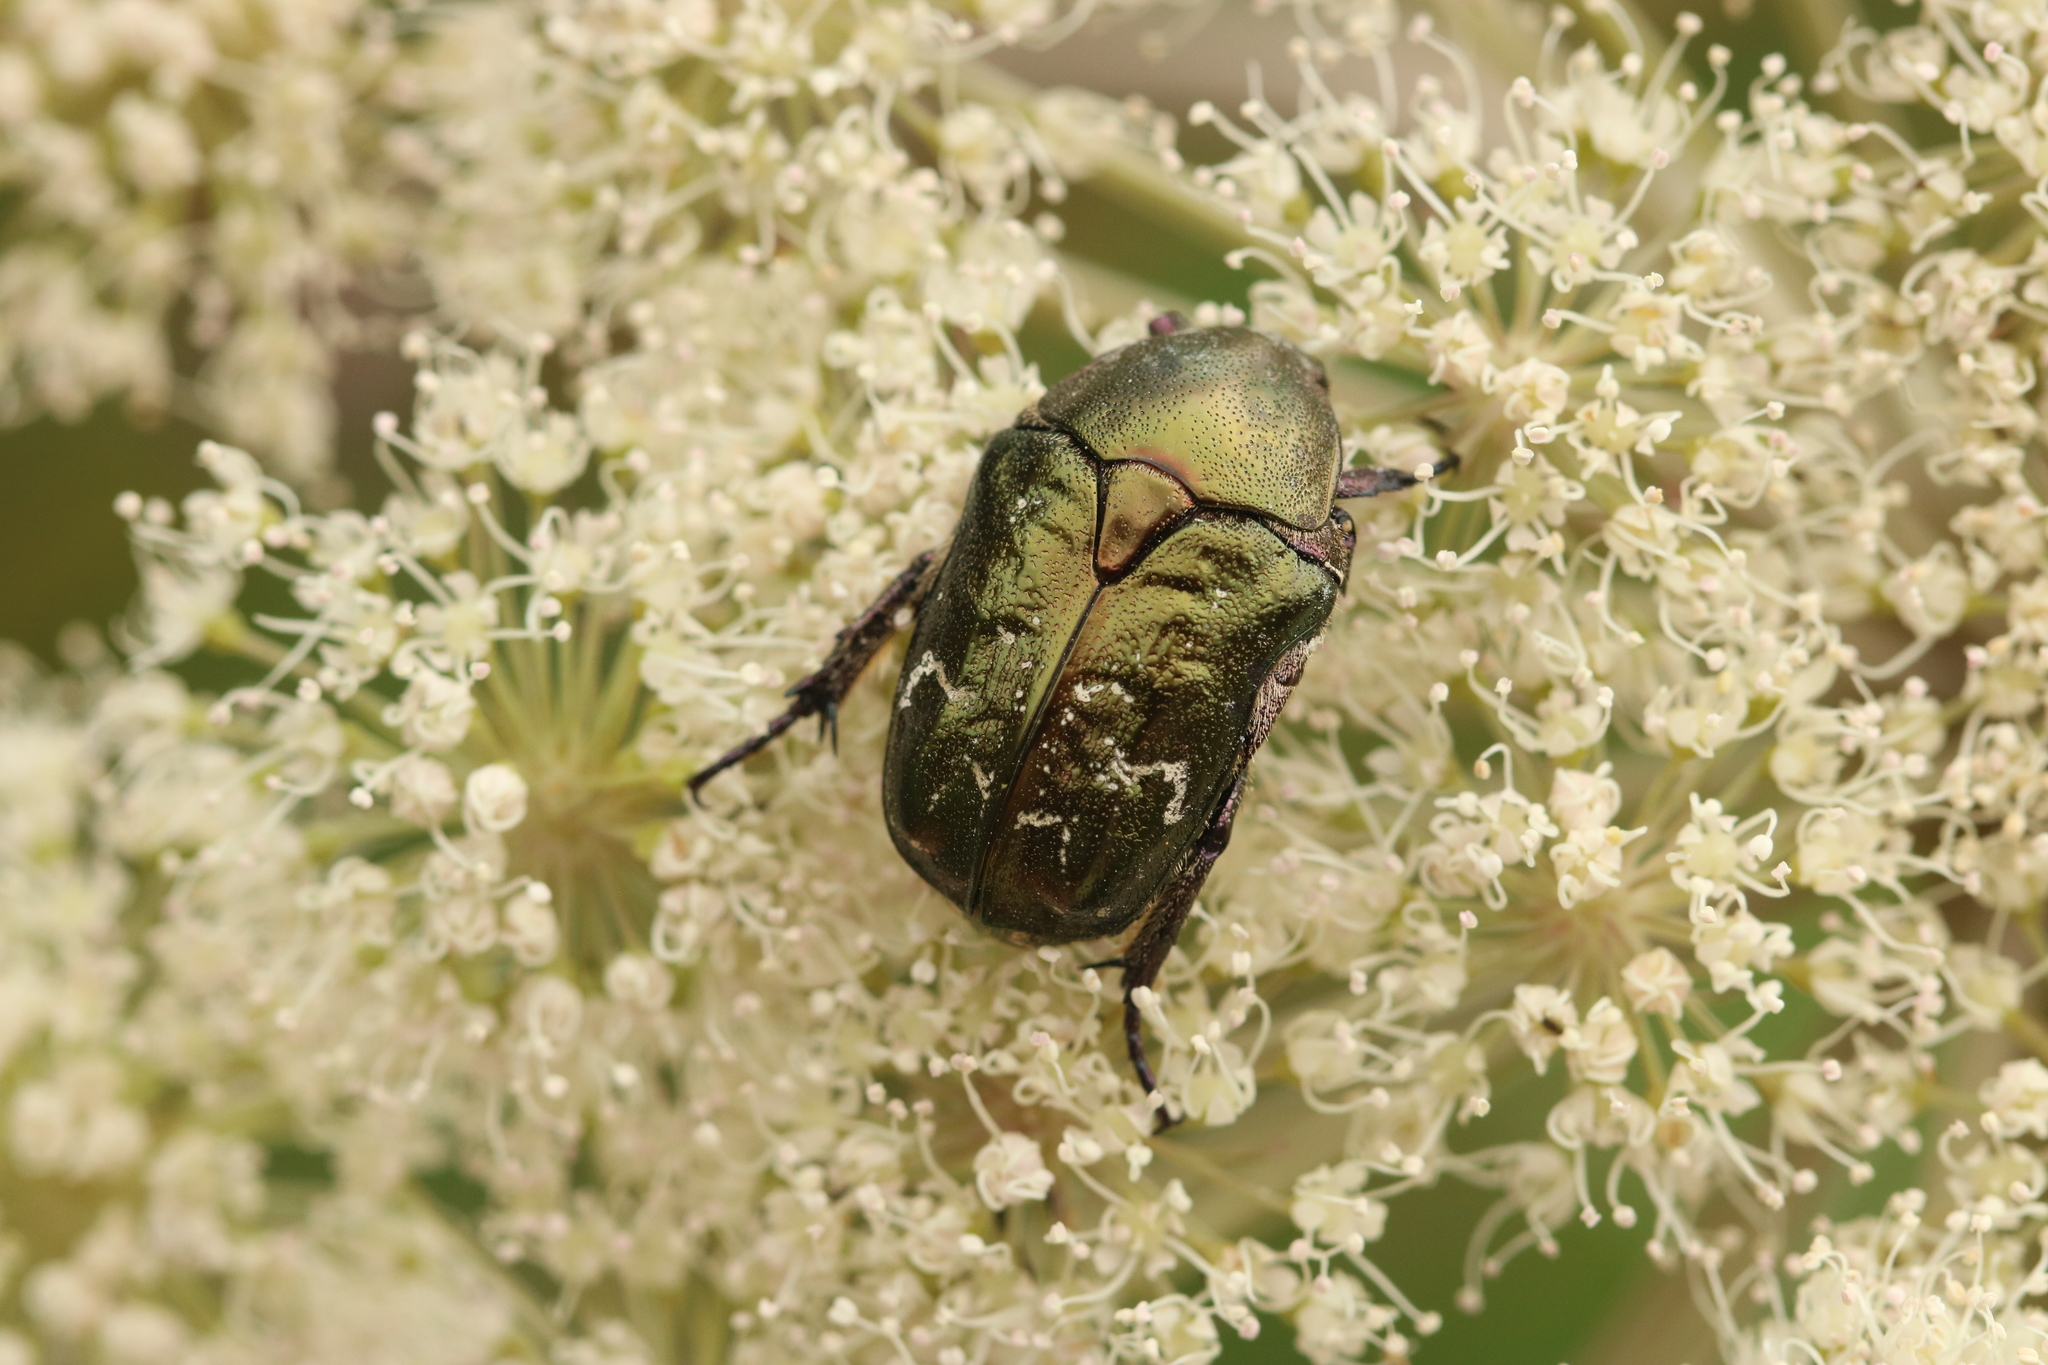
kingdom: Animalia
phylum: Arthropoda
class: Insecta
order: Coleoptera
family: Scarabaeidae
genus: Protaetia
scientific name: Protaetia cuprea
